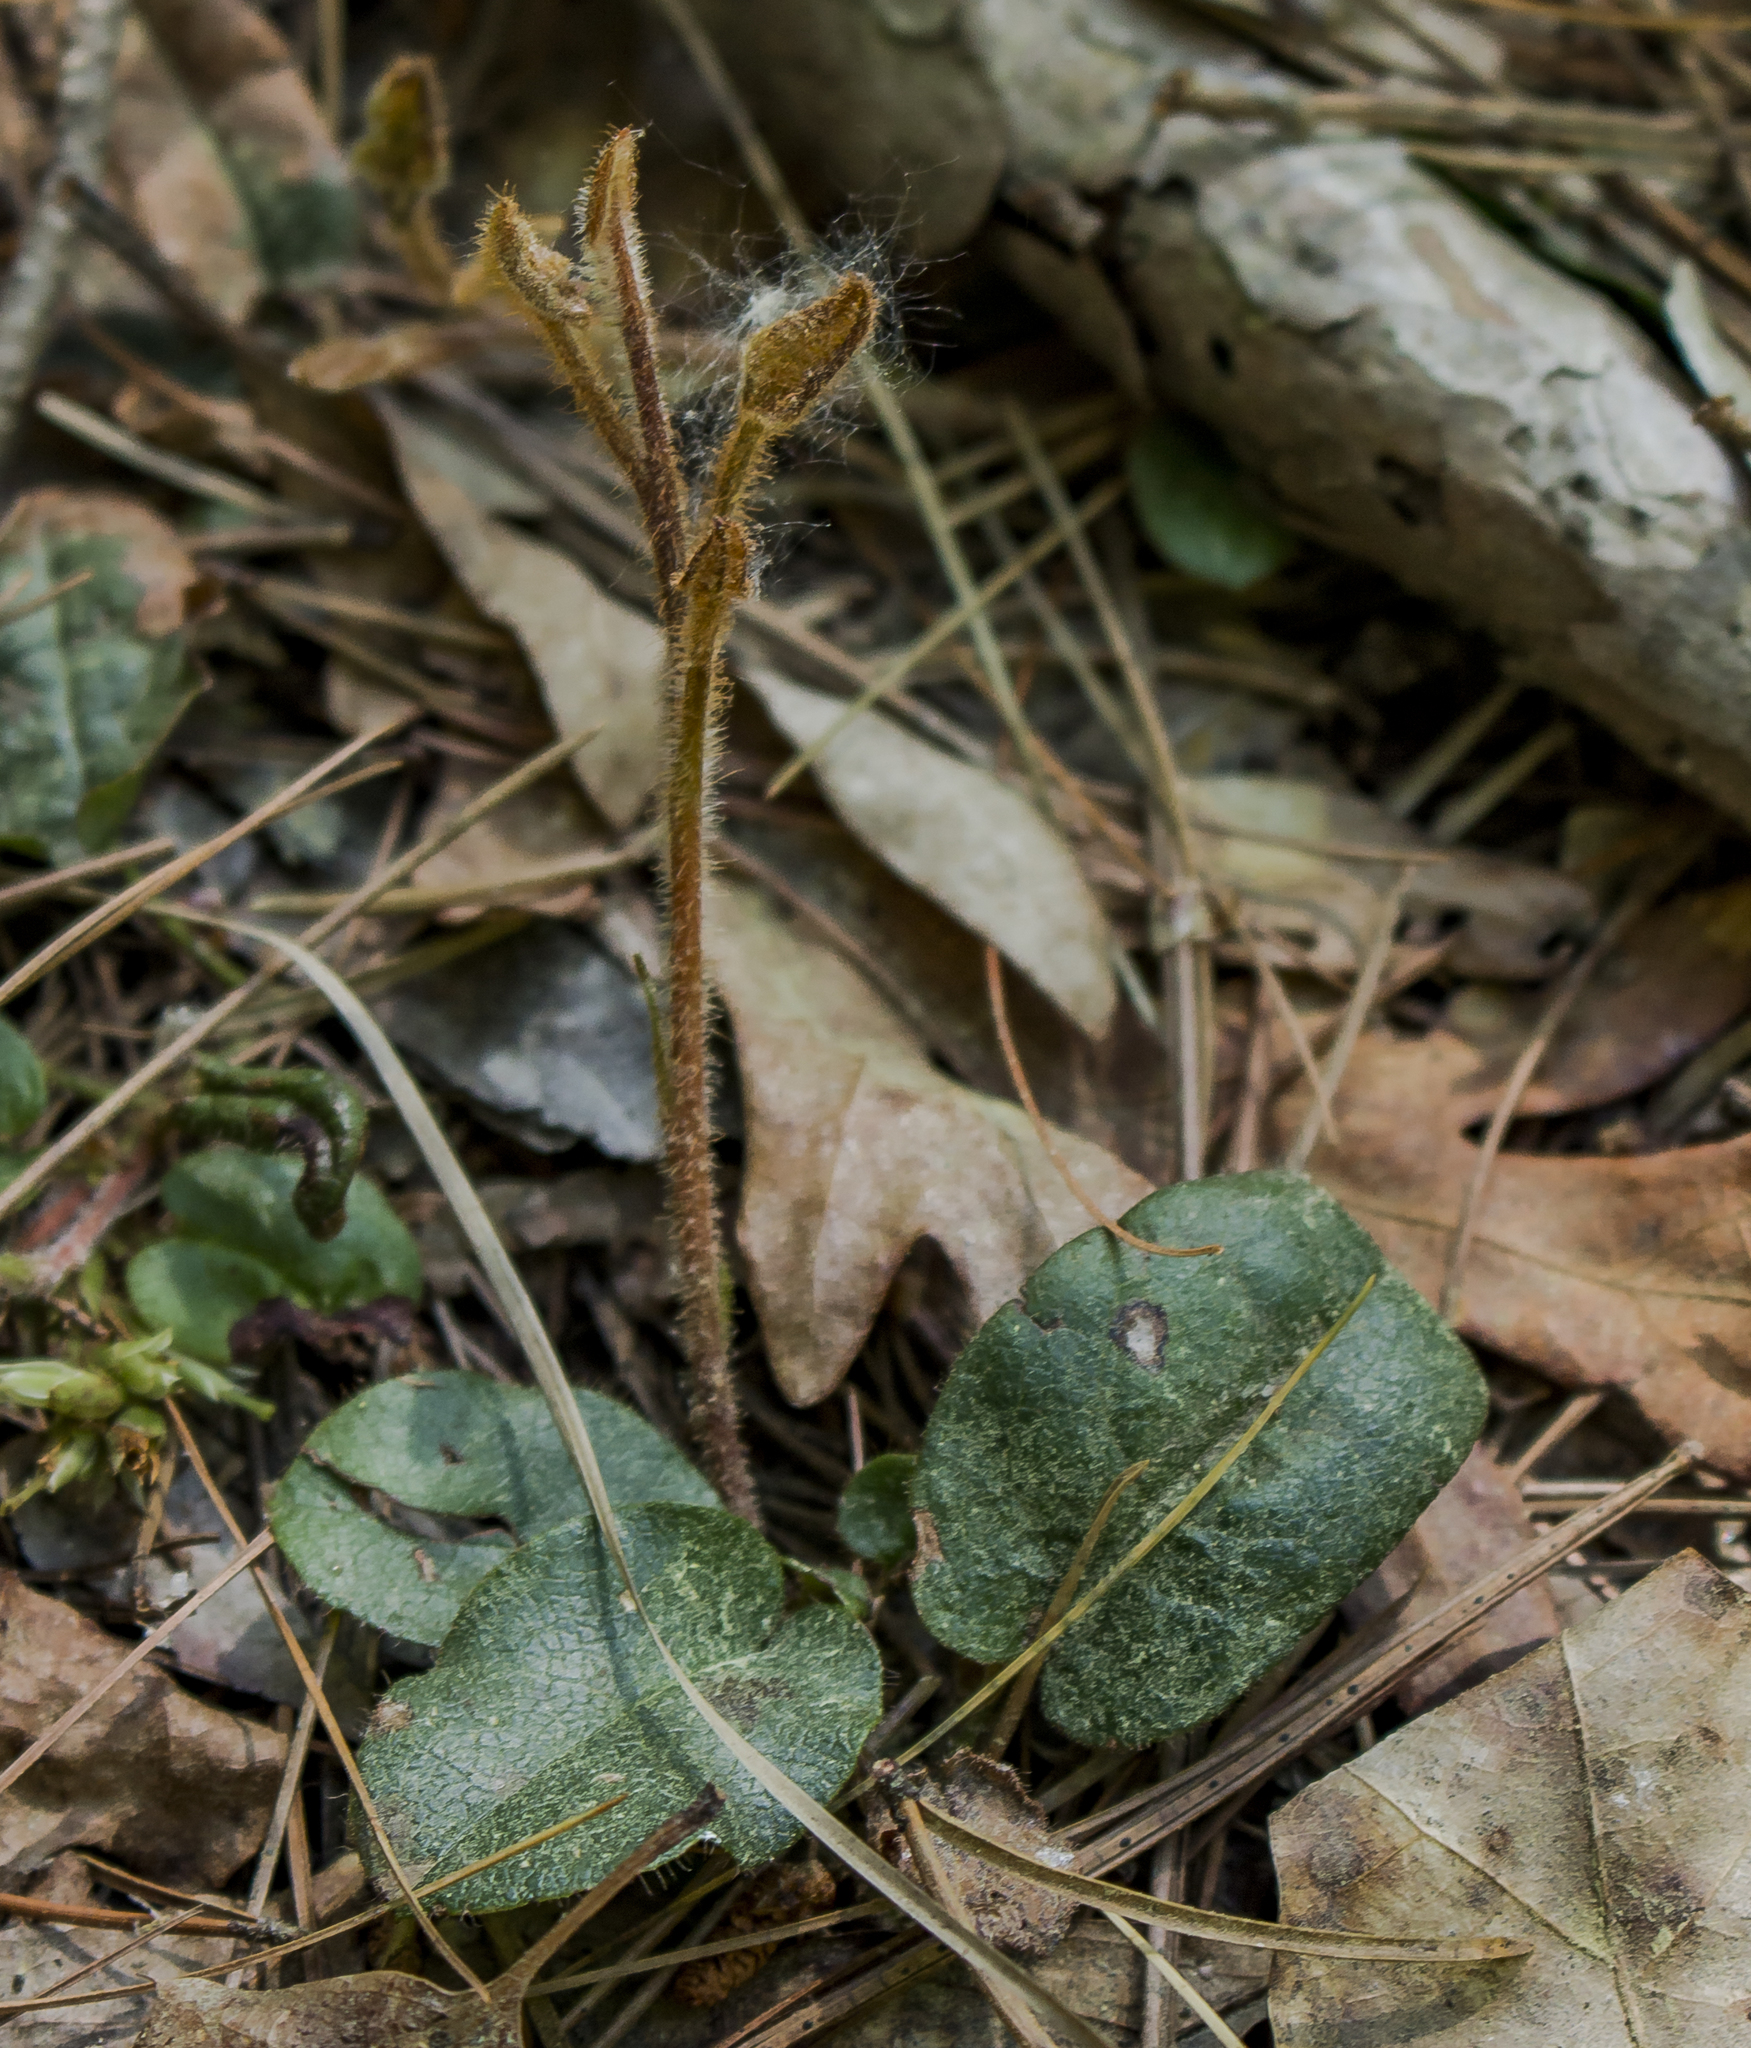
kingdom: Plantae
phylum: Tracheophyta
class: Magnoliopsida
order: Ericales
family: Ericaceae
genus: Epigaea
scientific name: Epigaea repens
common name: Gravelroot
